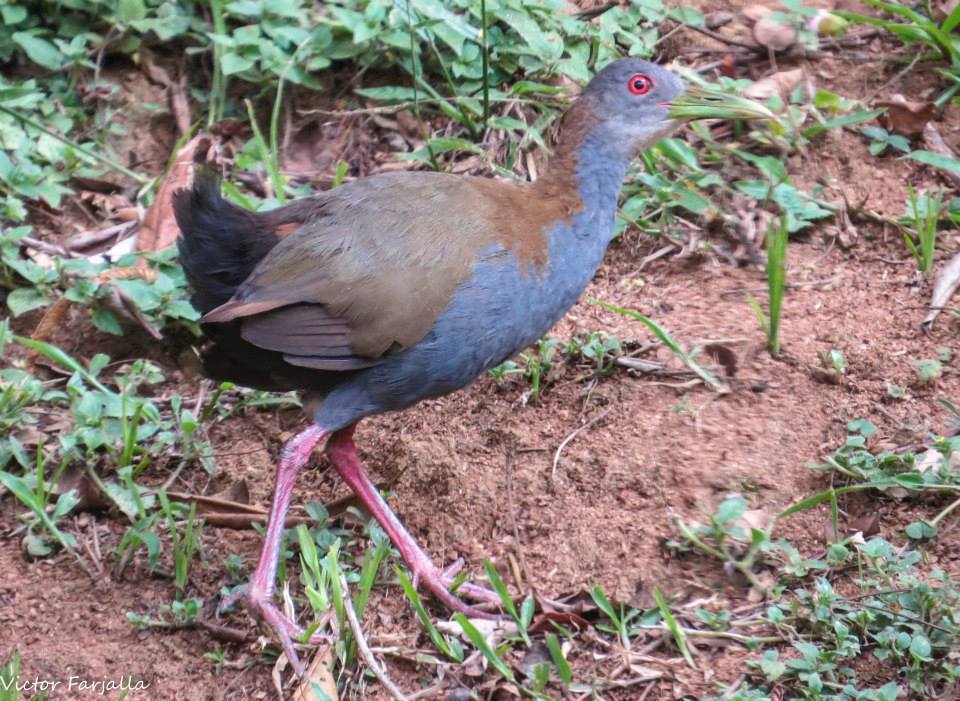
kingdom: Animalia
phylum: Chordata
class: Aves
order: Gruiformes
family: Rallidae
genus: Aramides
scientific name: Aramides saracura
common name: Slaty-breasted wood rail
